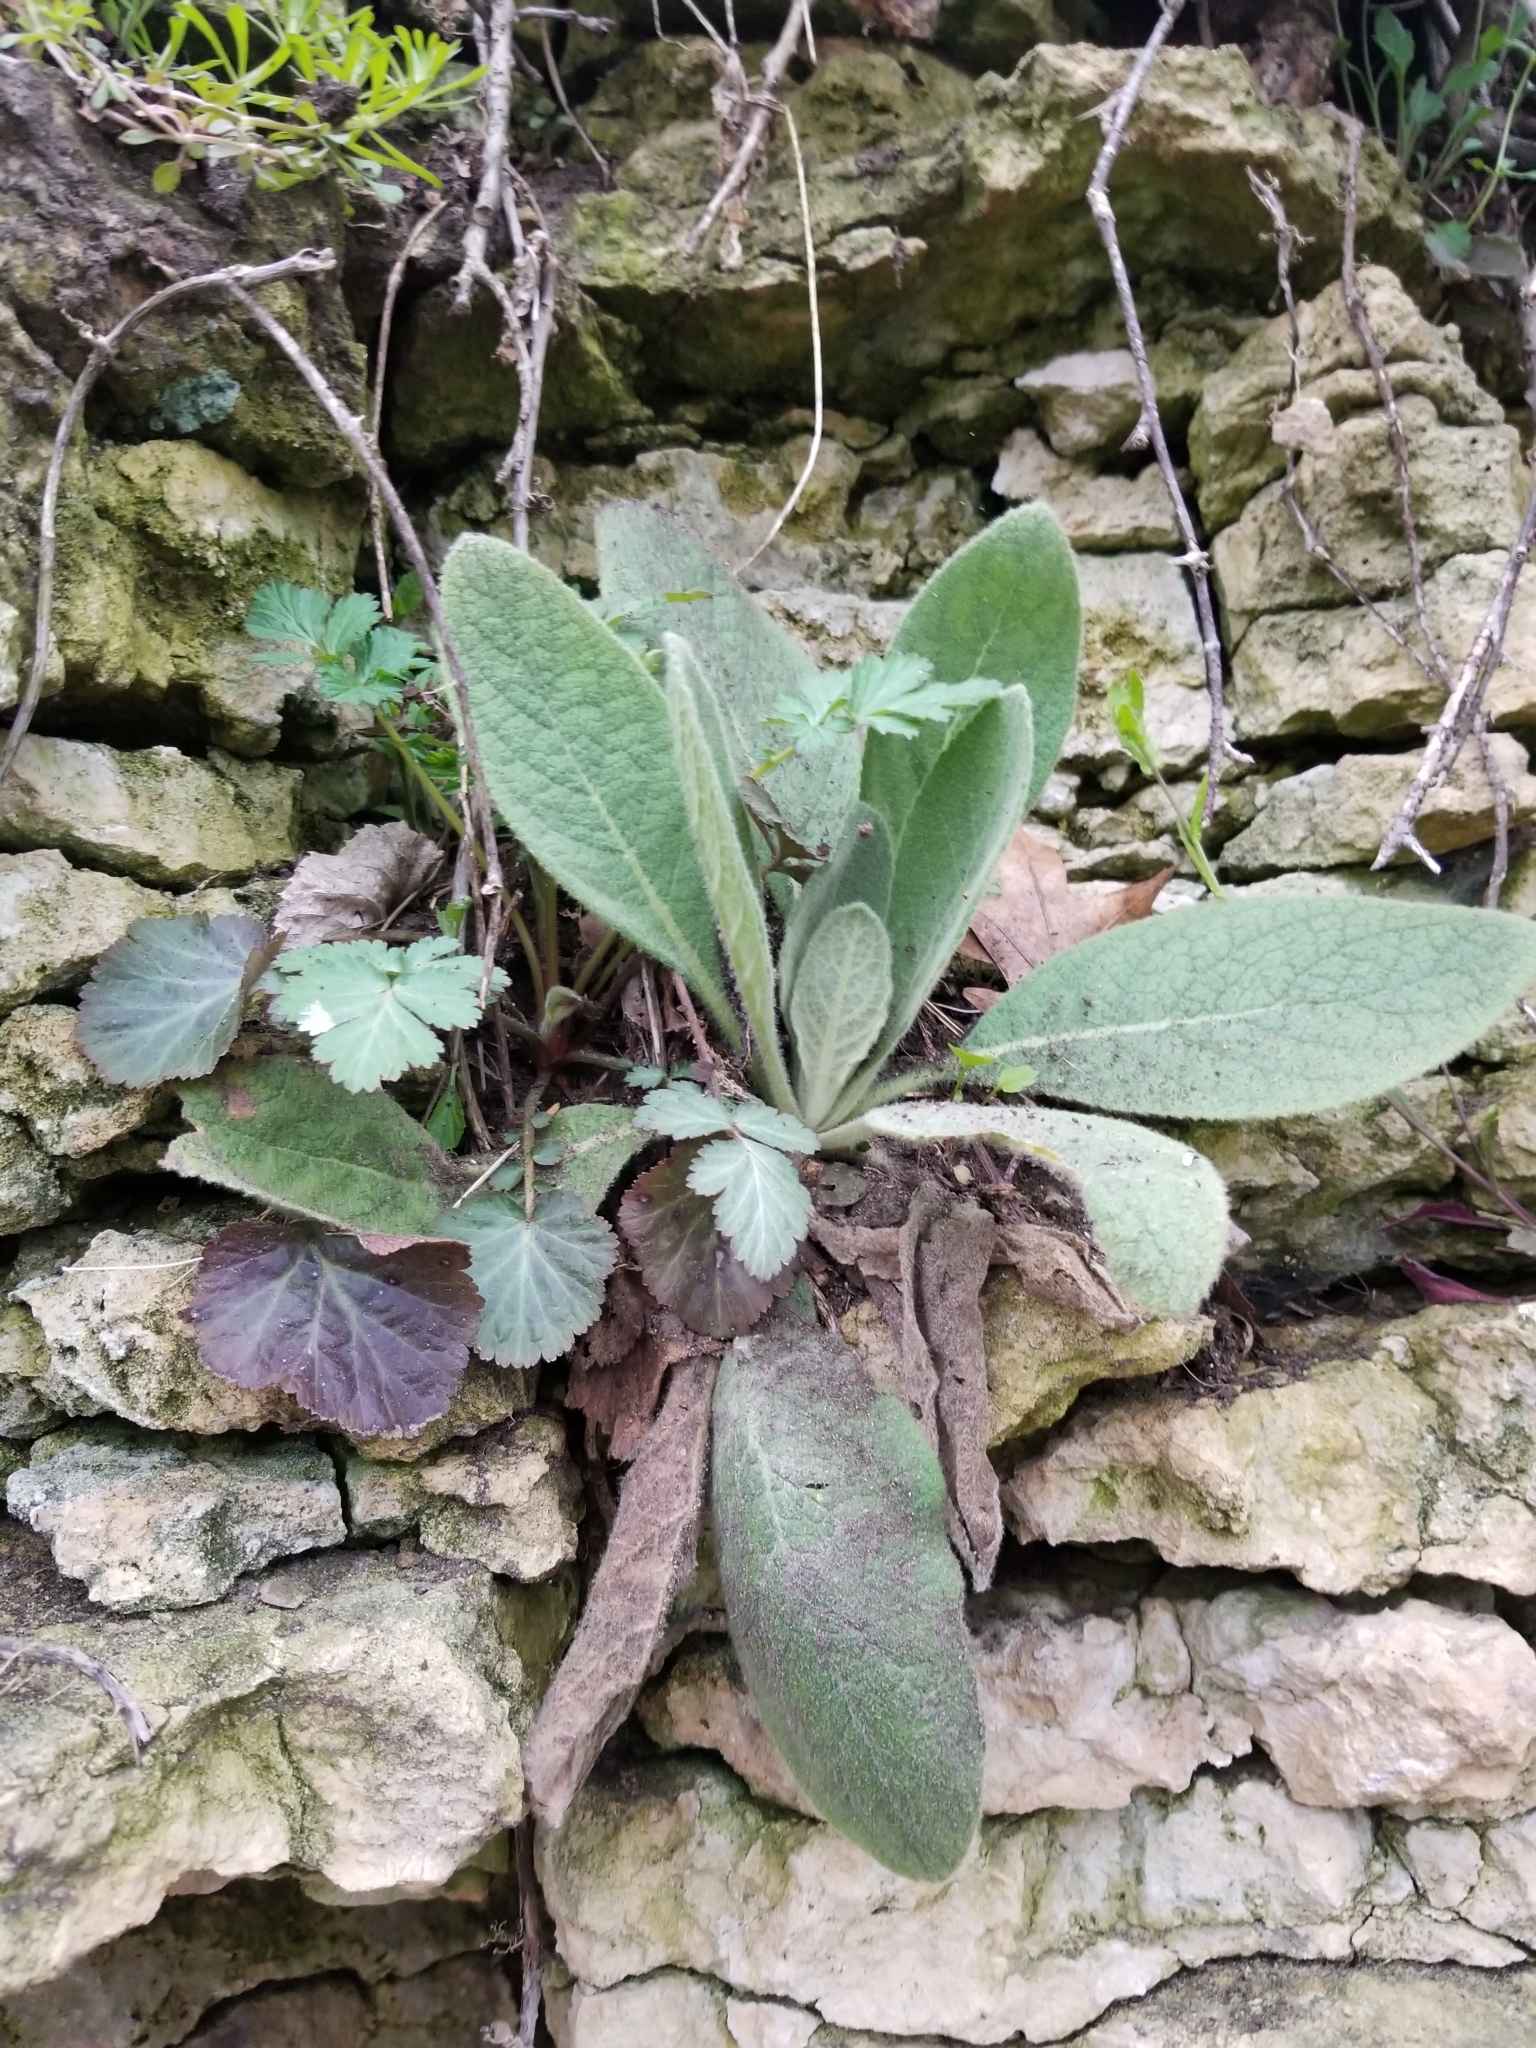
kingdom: Plantae
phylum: Tracheophyta
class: Magnoliopsida
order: Lamiales
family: Scrophulariaceae
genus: Verbascum
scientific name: Verbascum thapsus
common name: Common mullein
